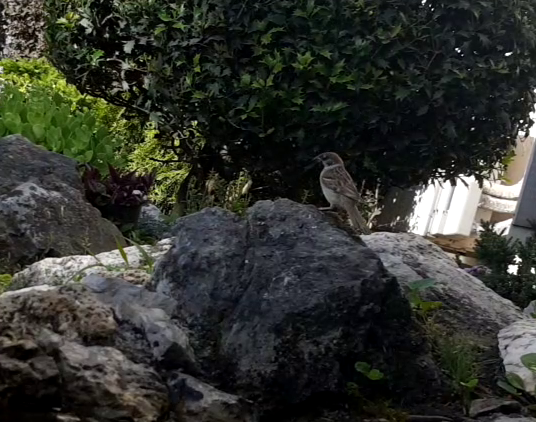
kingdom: Animalia
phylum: Chordata
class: Aves
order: Passeriformes
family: Passeridae
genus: Passer
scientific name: Passer montanus
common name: Eurasian tree sparrow
